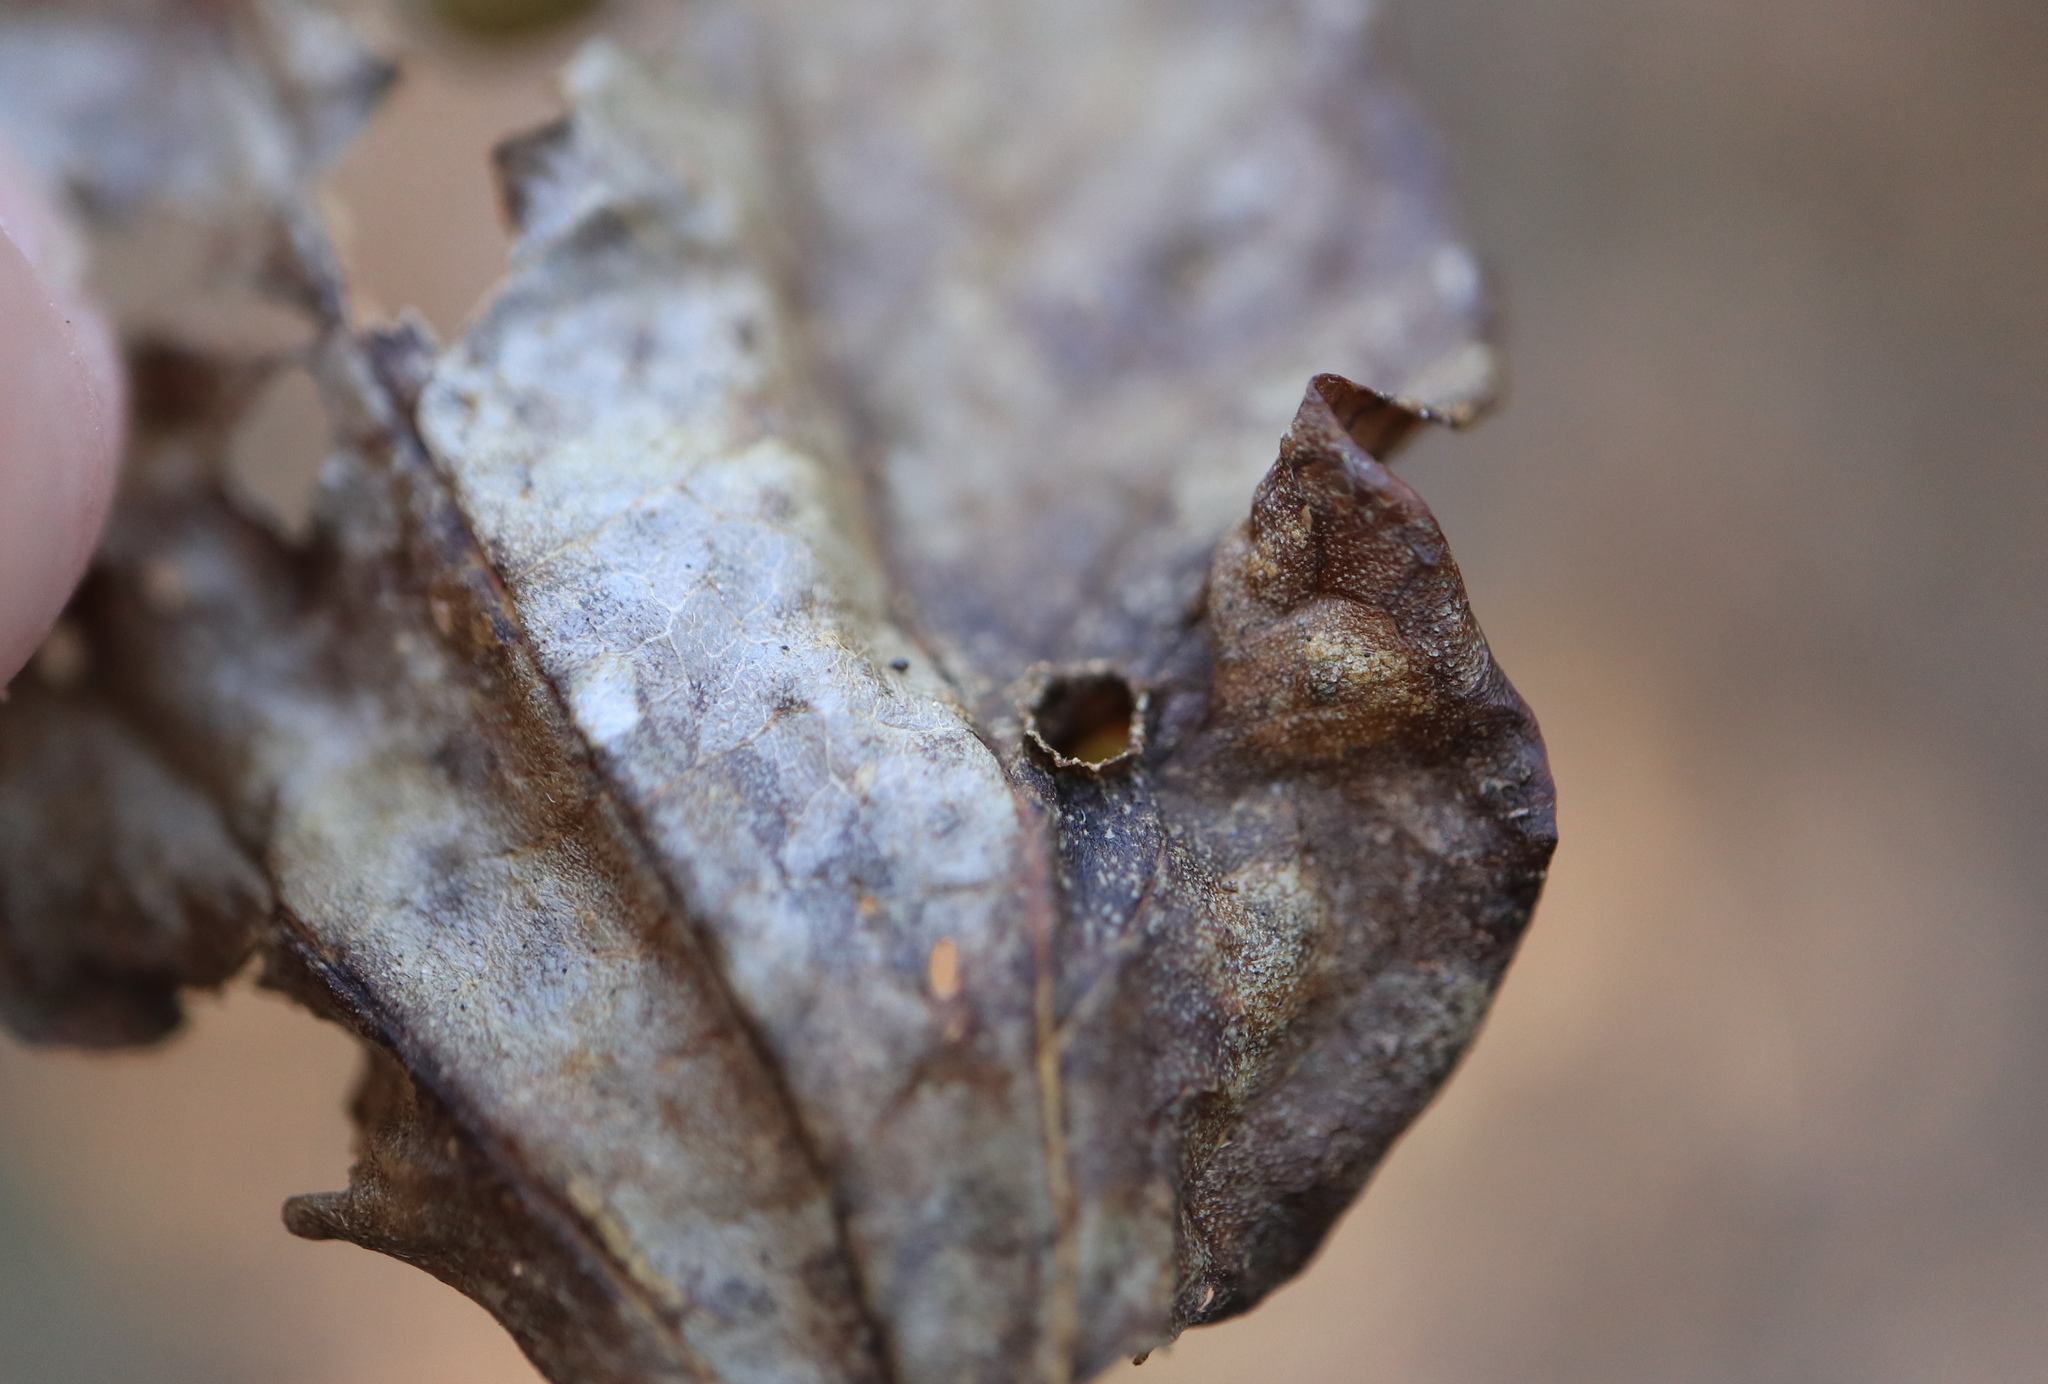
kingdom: Animalia
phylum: Arthropoda
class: Insecta
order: Hemiptera
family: Aphalaridae
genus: Pachypsylla
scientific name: Pachypsylla celtidismamma
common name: Hackberry nipplegall psyllid
